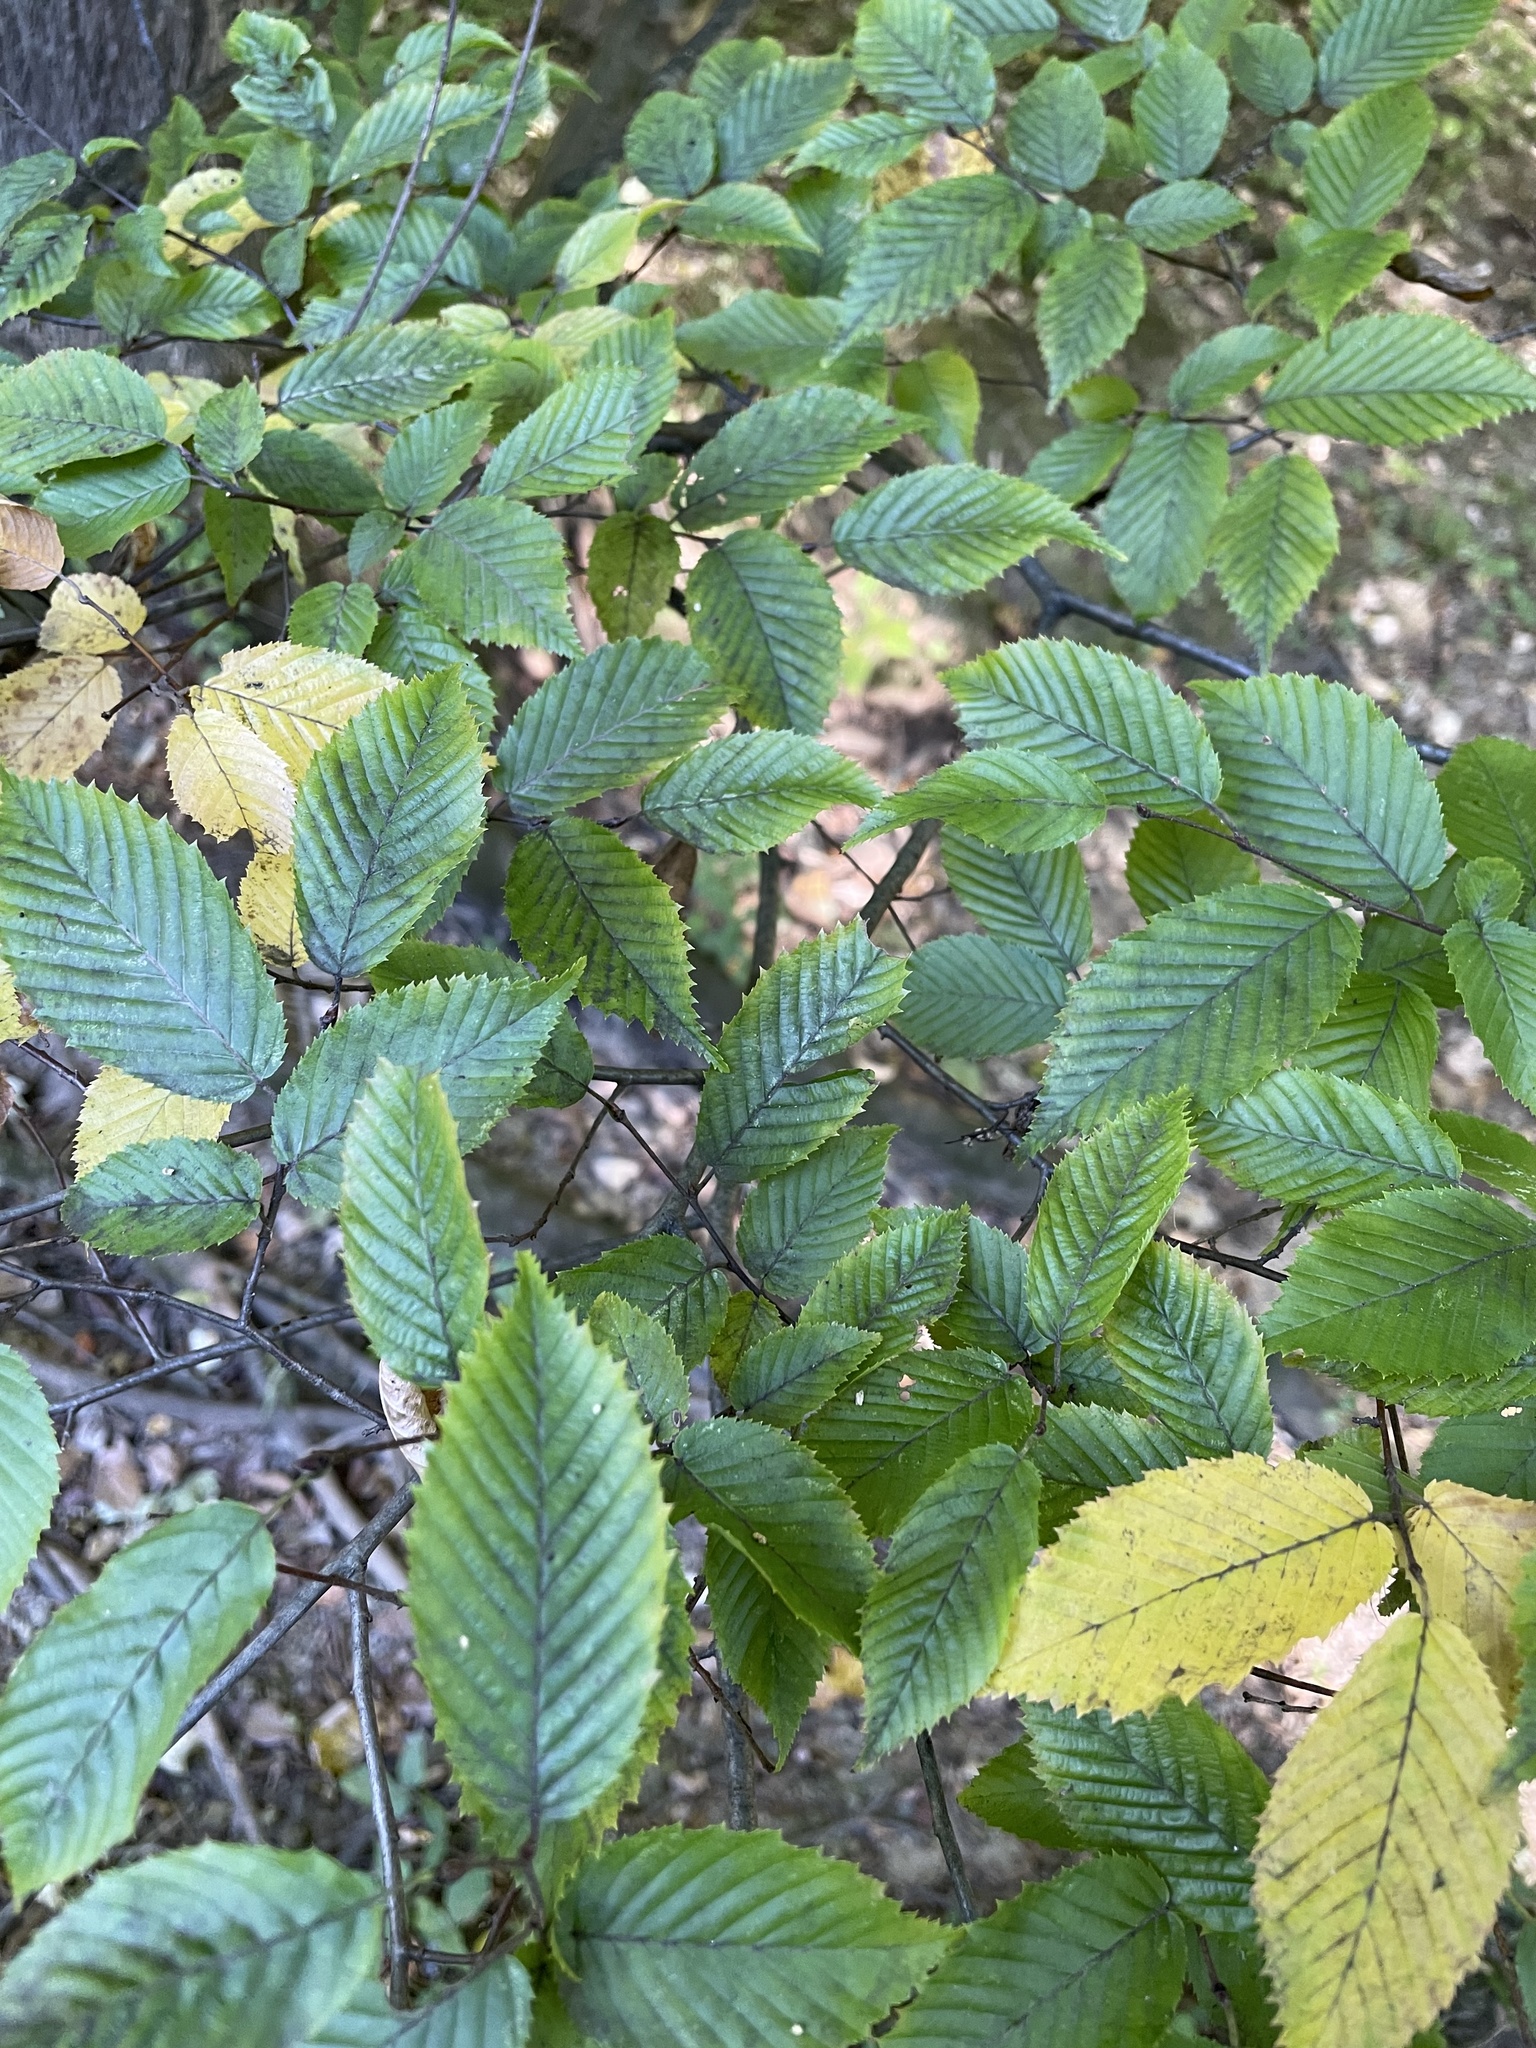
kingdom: Plantae
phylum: Tracheophyta
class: Magnoliopsida
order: Fagales
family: Betulaceae
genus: Carpinus
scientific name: Carpinus caroliniana
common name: American hornbeam
